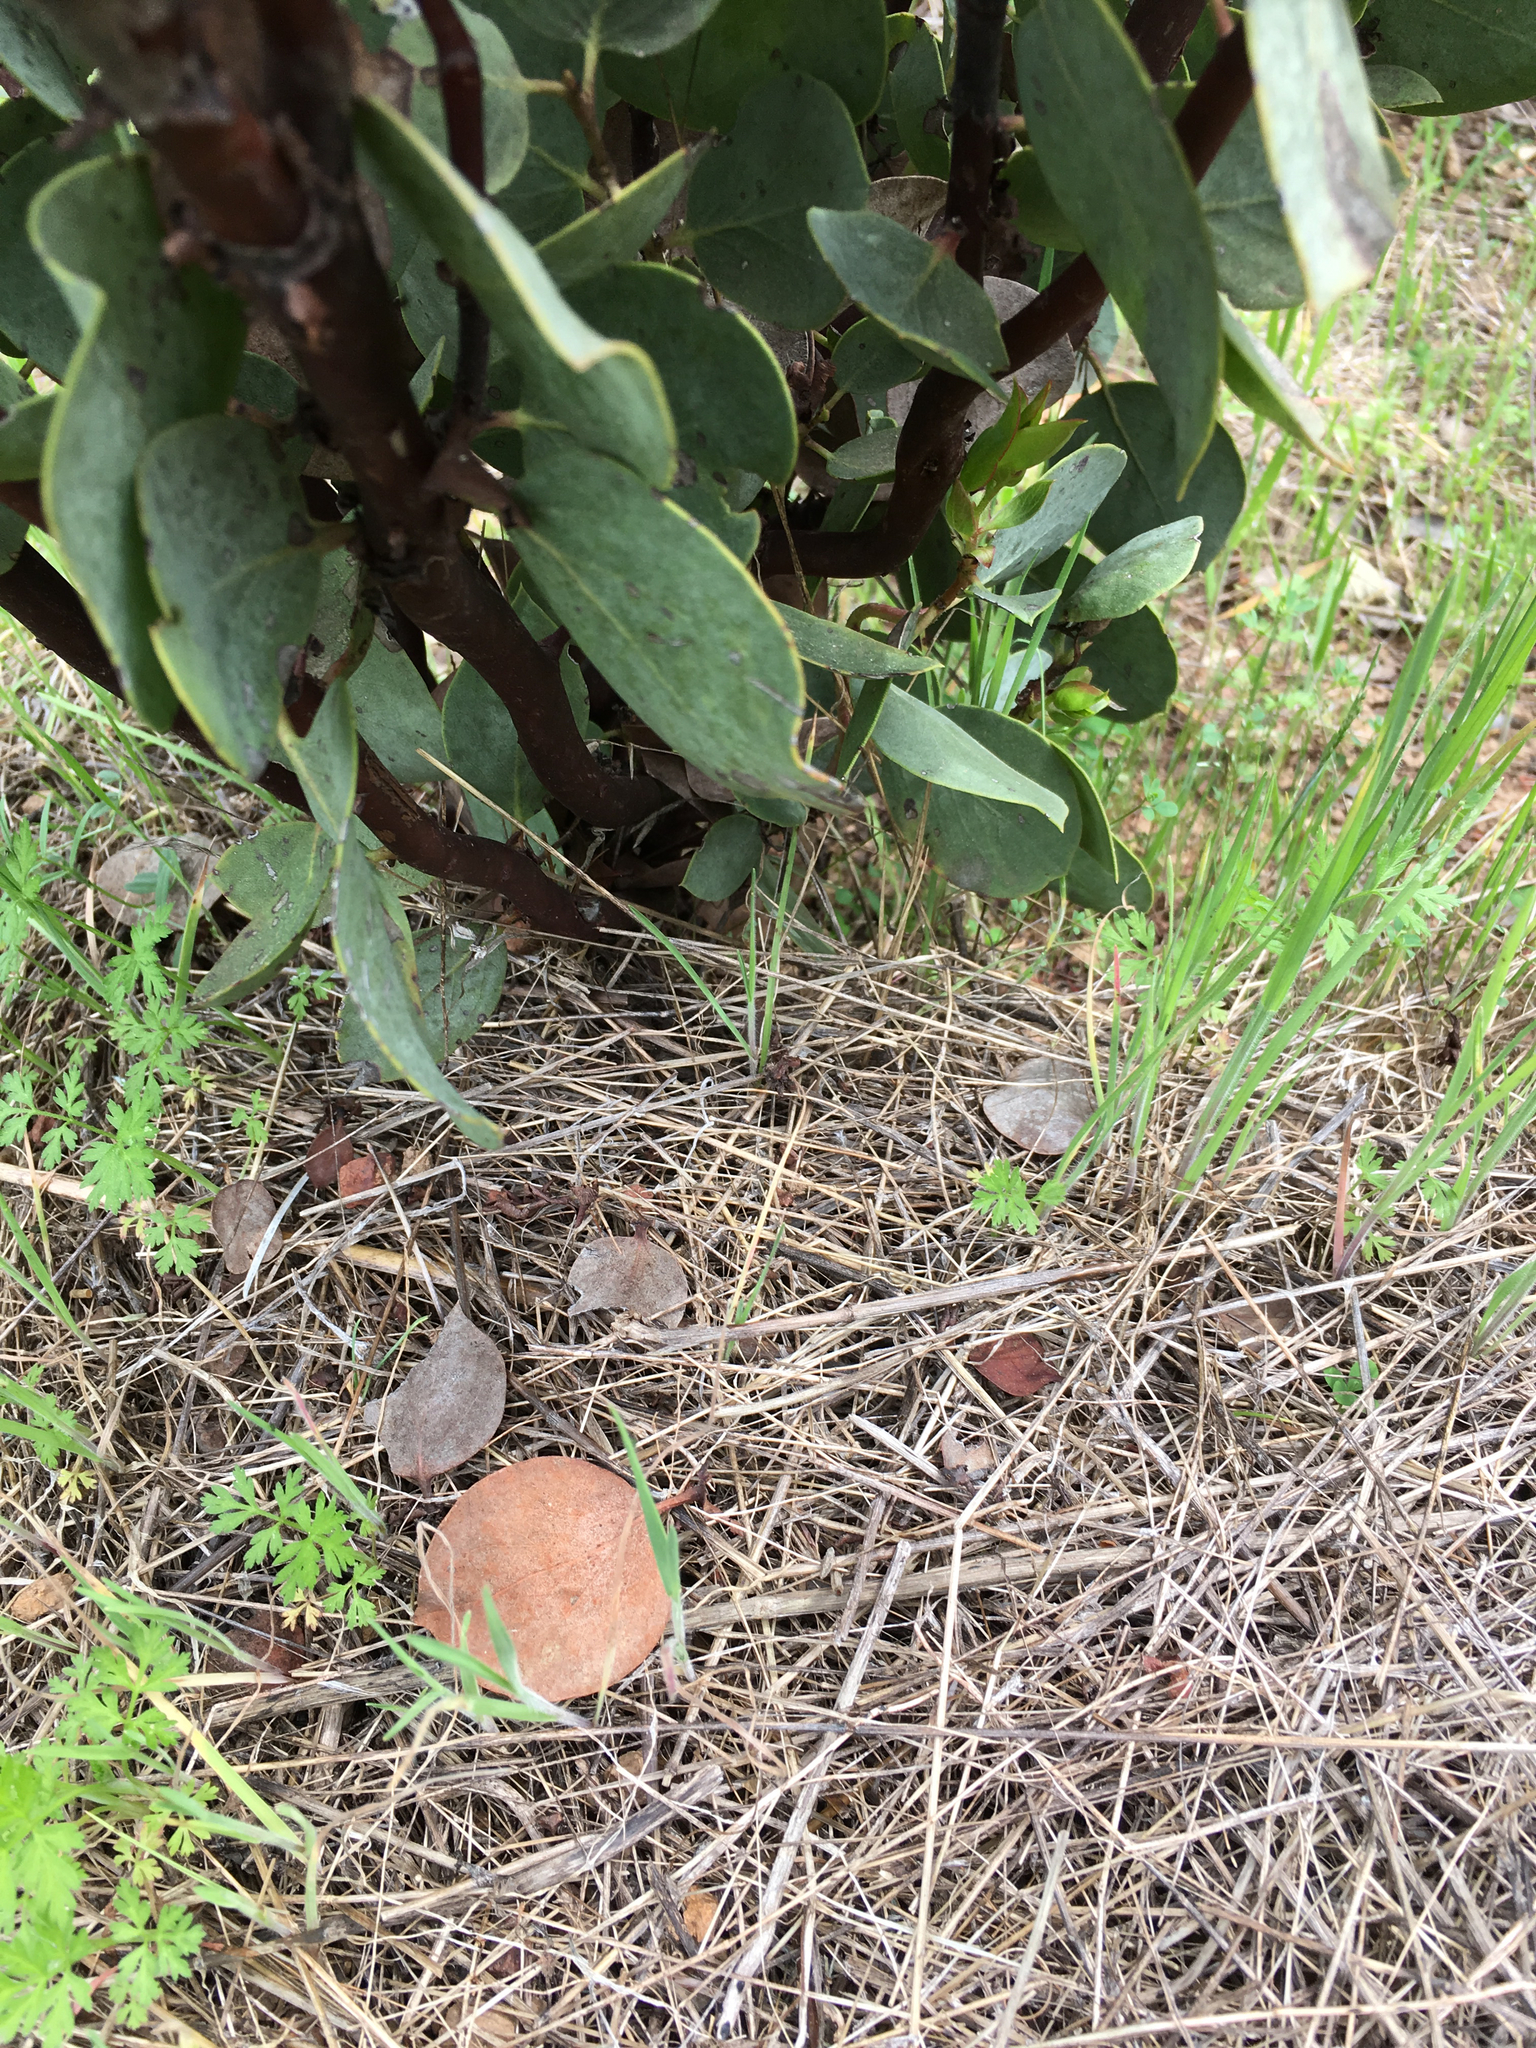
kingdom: Plantae
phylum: Tracheophyta
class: Magnoliopsida
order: Ericales
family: Ericaceae
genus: Arctostaphylos
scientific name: Arctostaphylos viscida
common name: White-leaf manzanita
